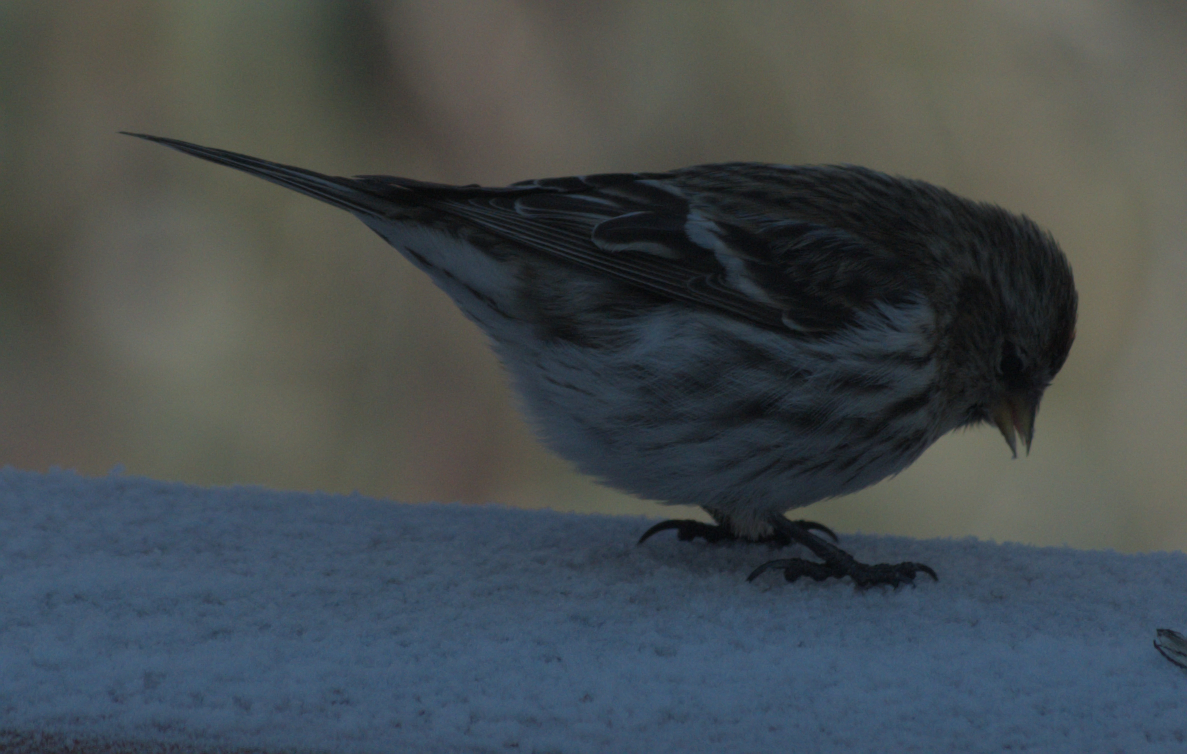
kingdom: Animalia
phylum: Chordata
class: Aves
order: Passeriformes
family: Fringillidae
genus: Acanthis
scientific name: Acanthis flammea
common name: Common redpoll
